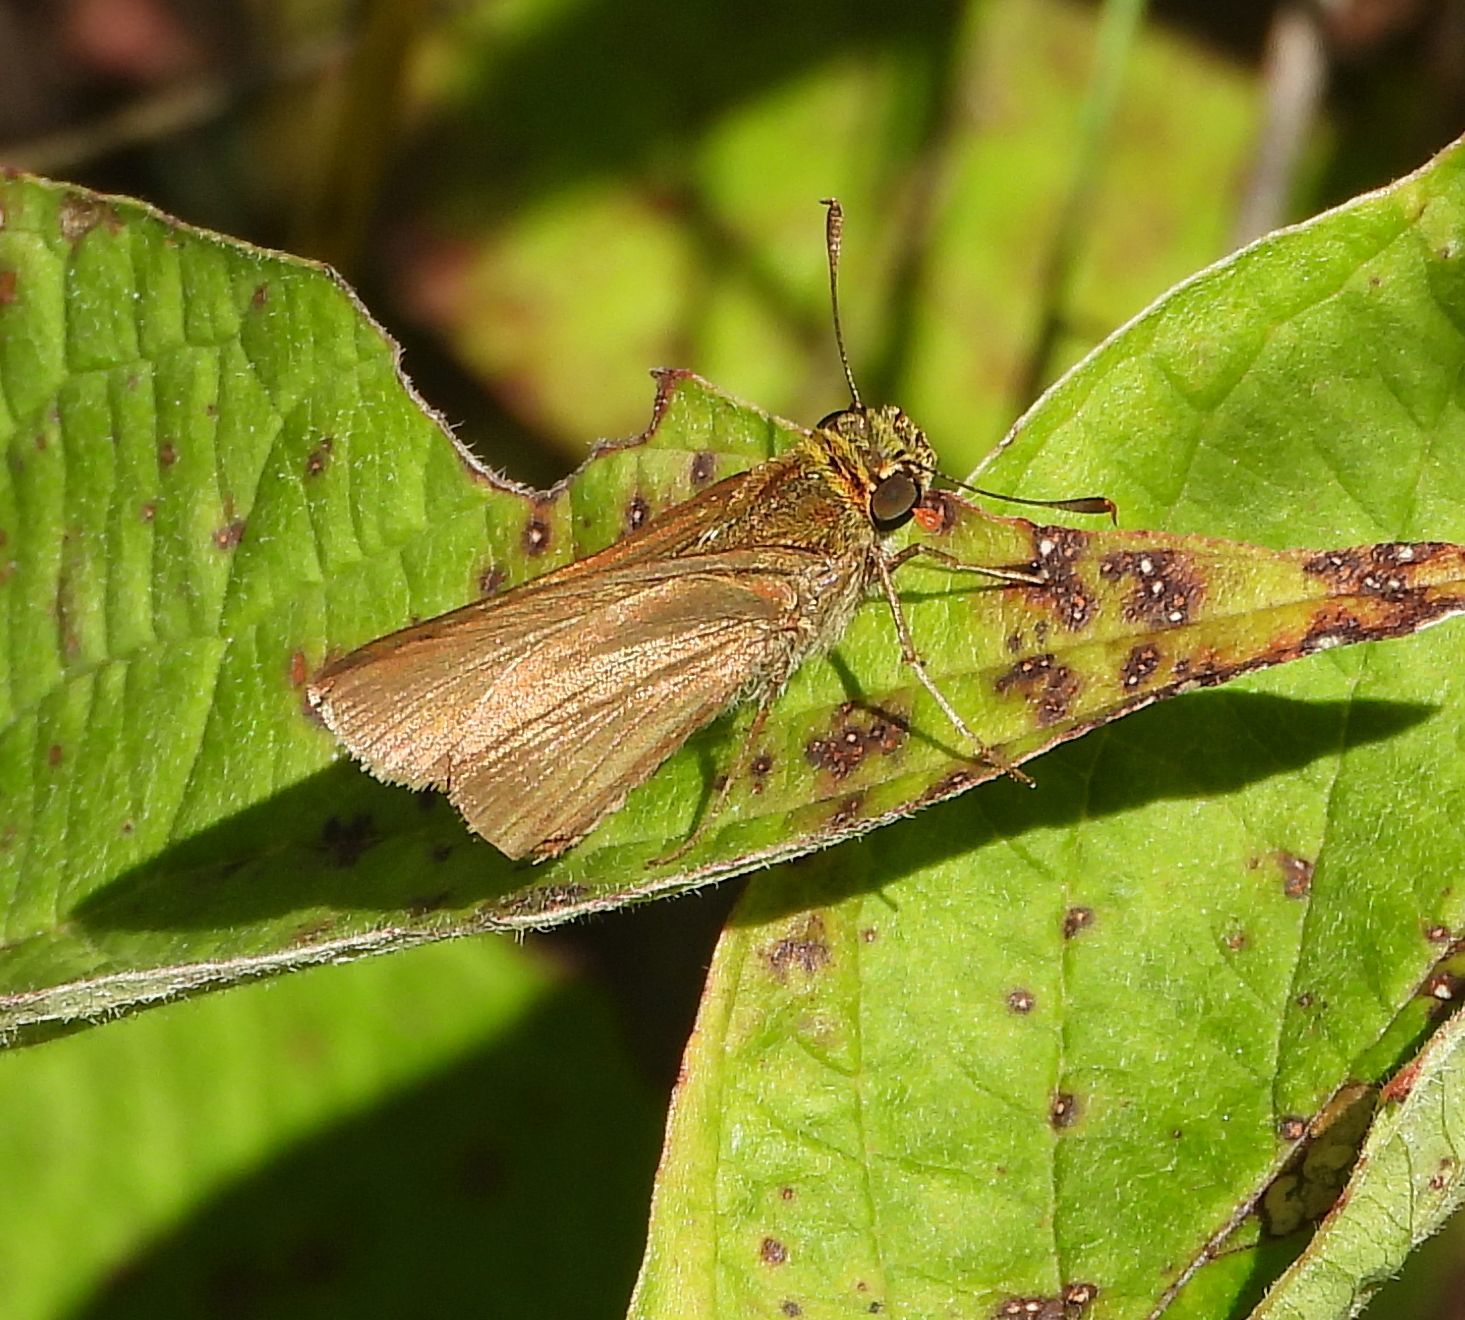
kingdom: Animalia
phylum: Arthropoda
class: Insecta
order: Lepidoptera
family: Hesperiidae
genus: Euphyes
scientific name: Euphyes vestris
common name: Dun skipper
